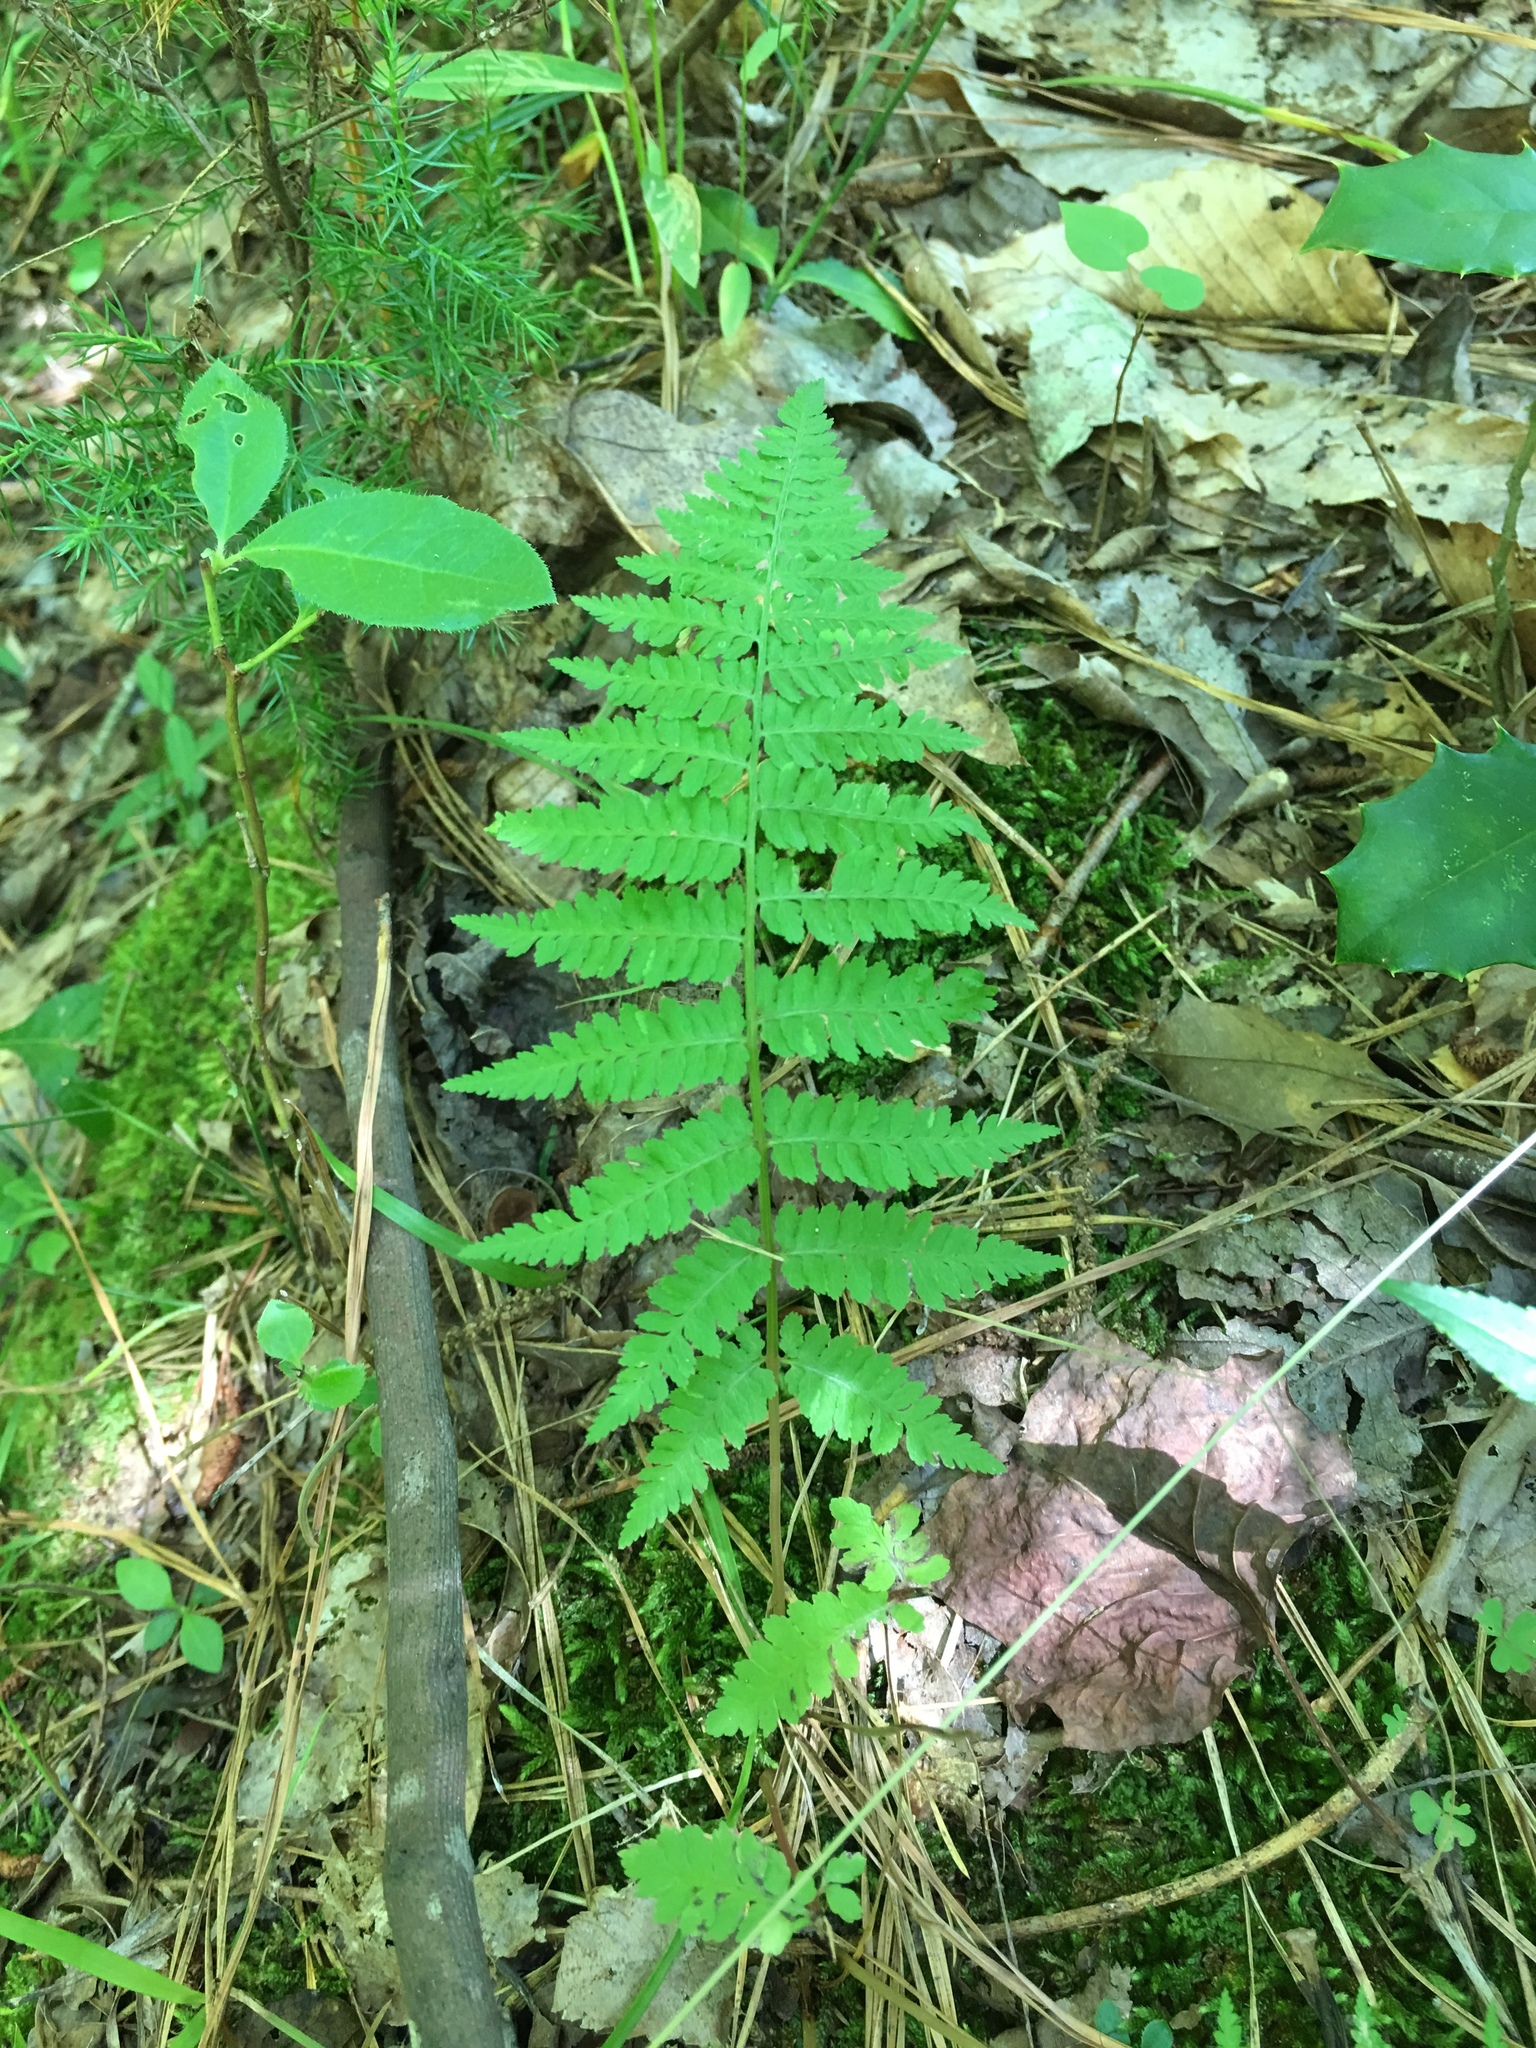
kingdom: Plantae
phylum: Tracheophyta
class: Polypodiopsida
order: Polypodiales
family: Athyriaceae
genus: Athyrium
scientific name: Athyrium asplenioides
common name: Southern lady fern
